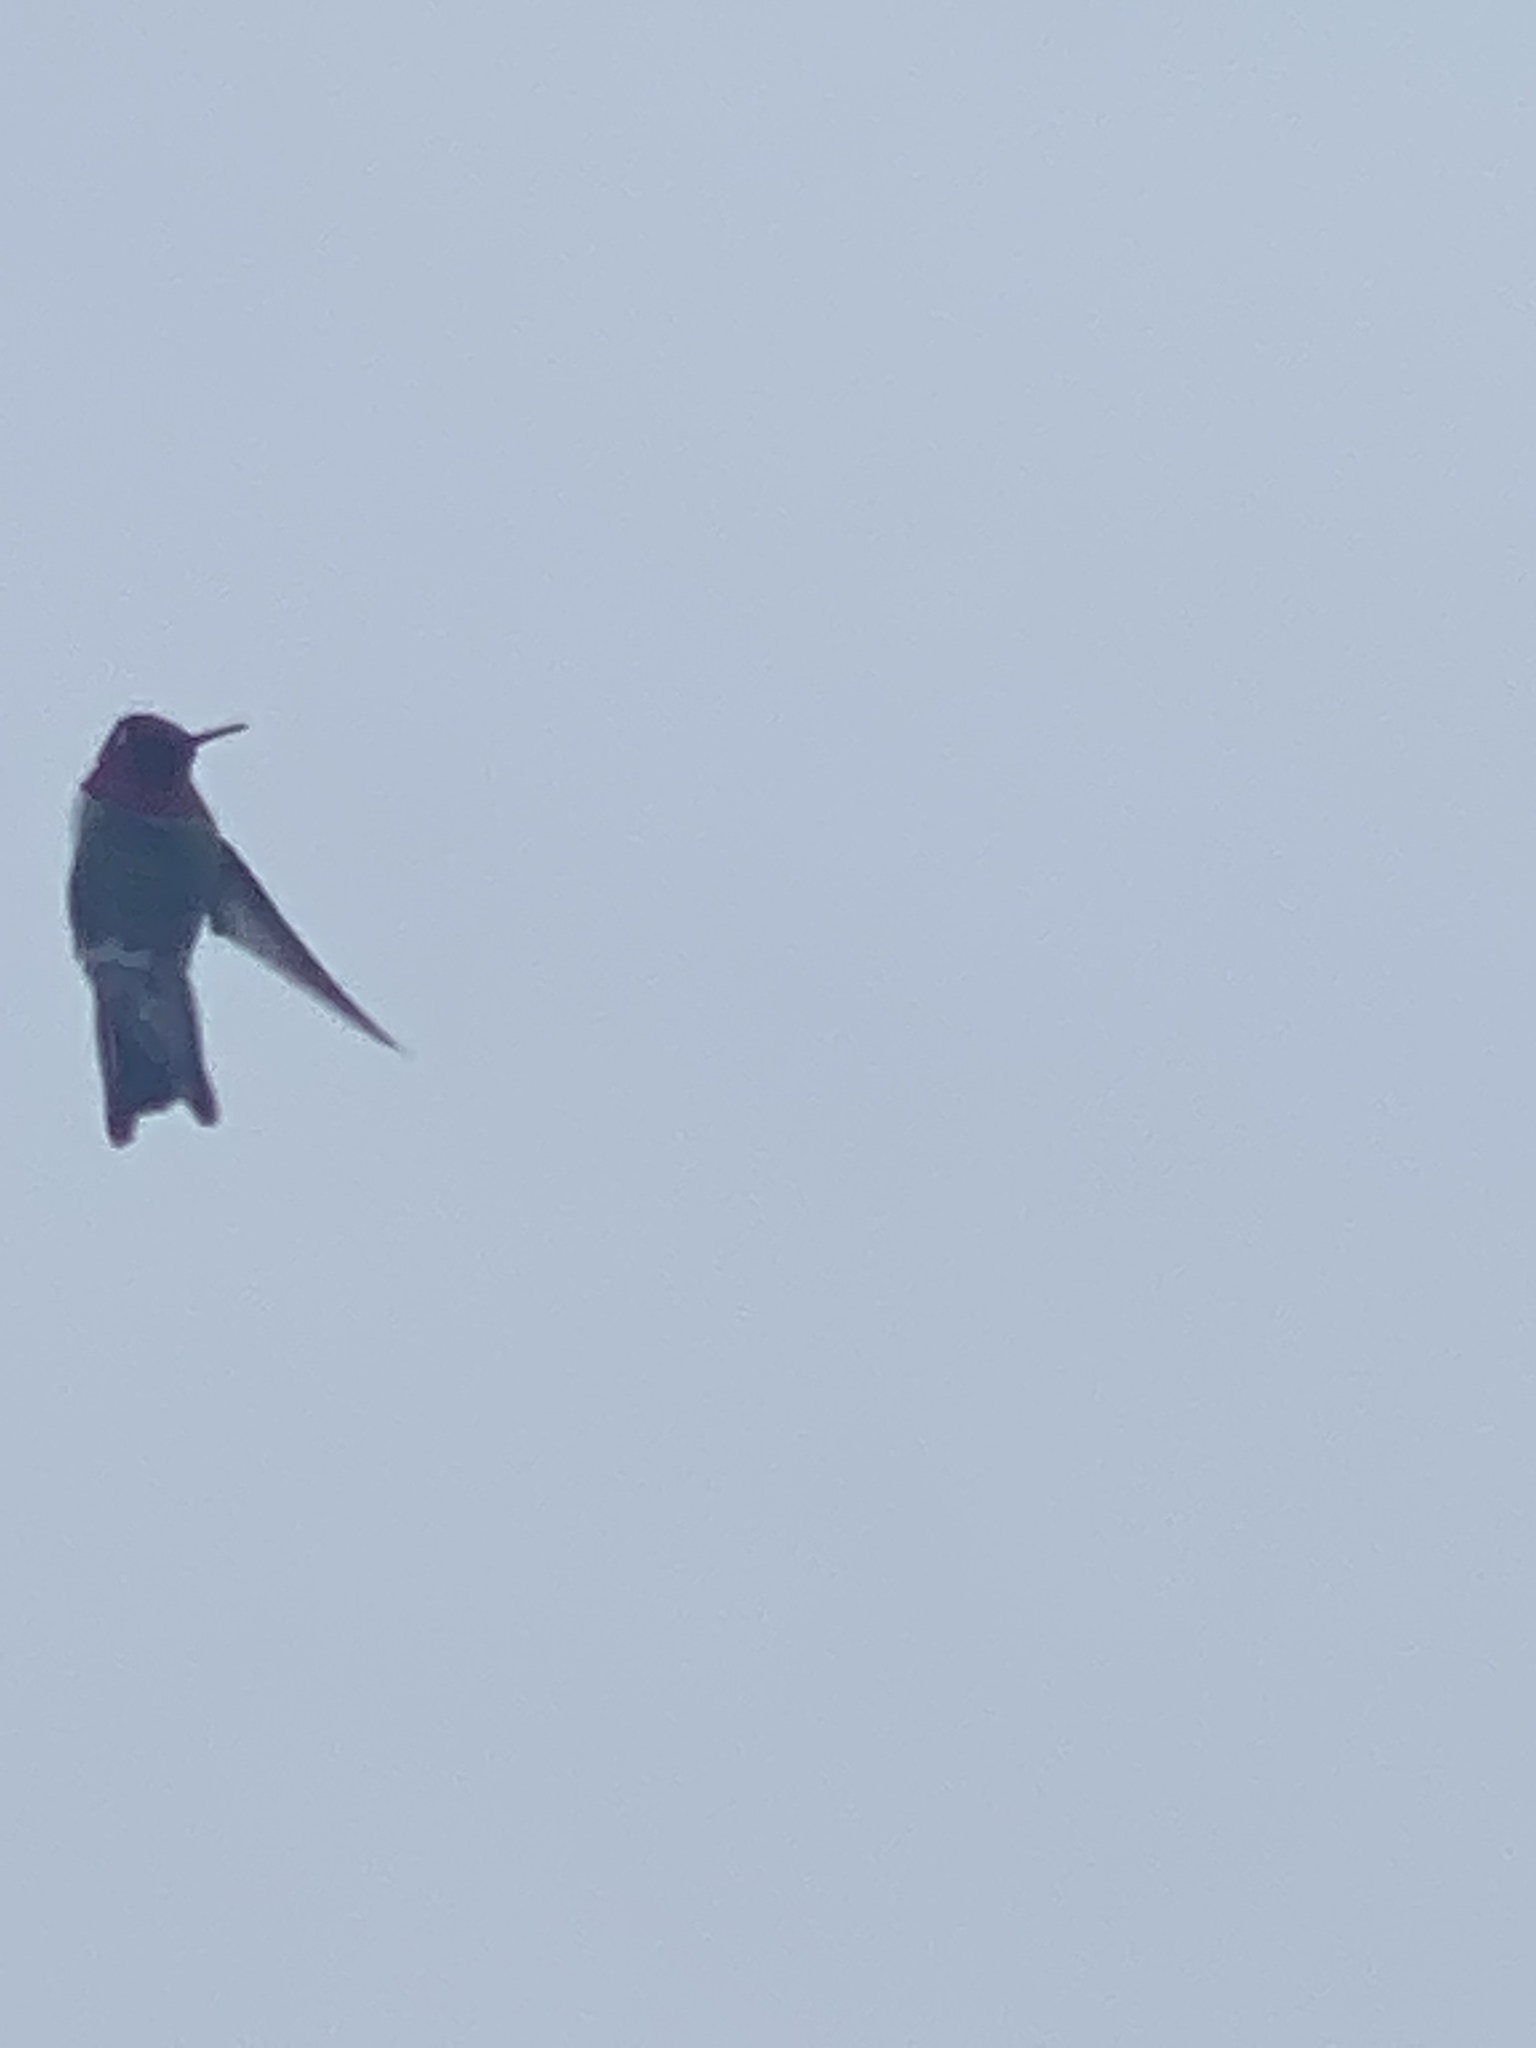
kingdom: Animalia
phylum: Chordata
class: Aves
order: Apodiformes
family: Trochilidae
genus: Calypte
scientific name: Calypte anna
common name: Anna's hummingbird
